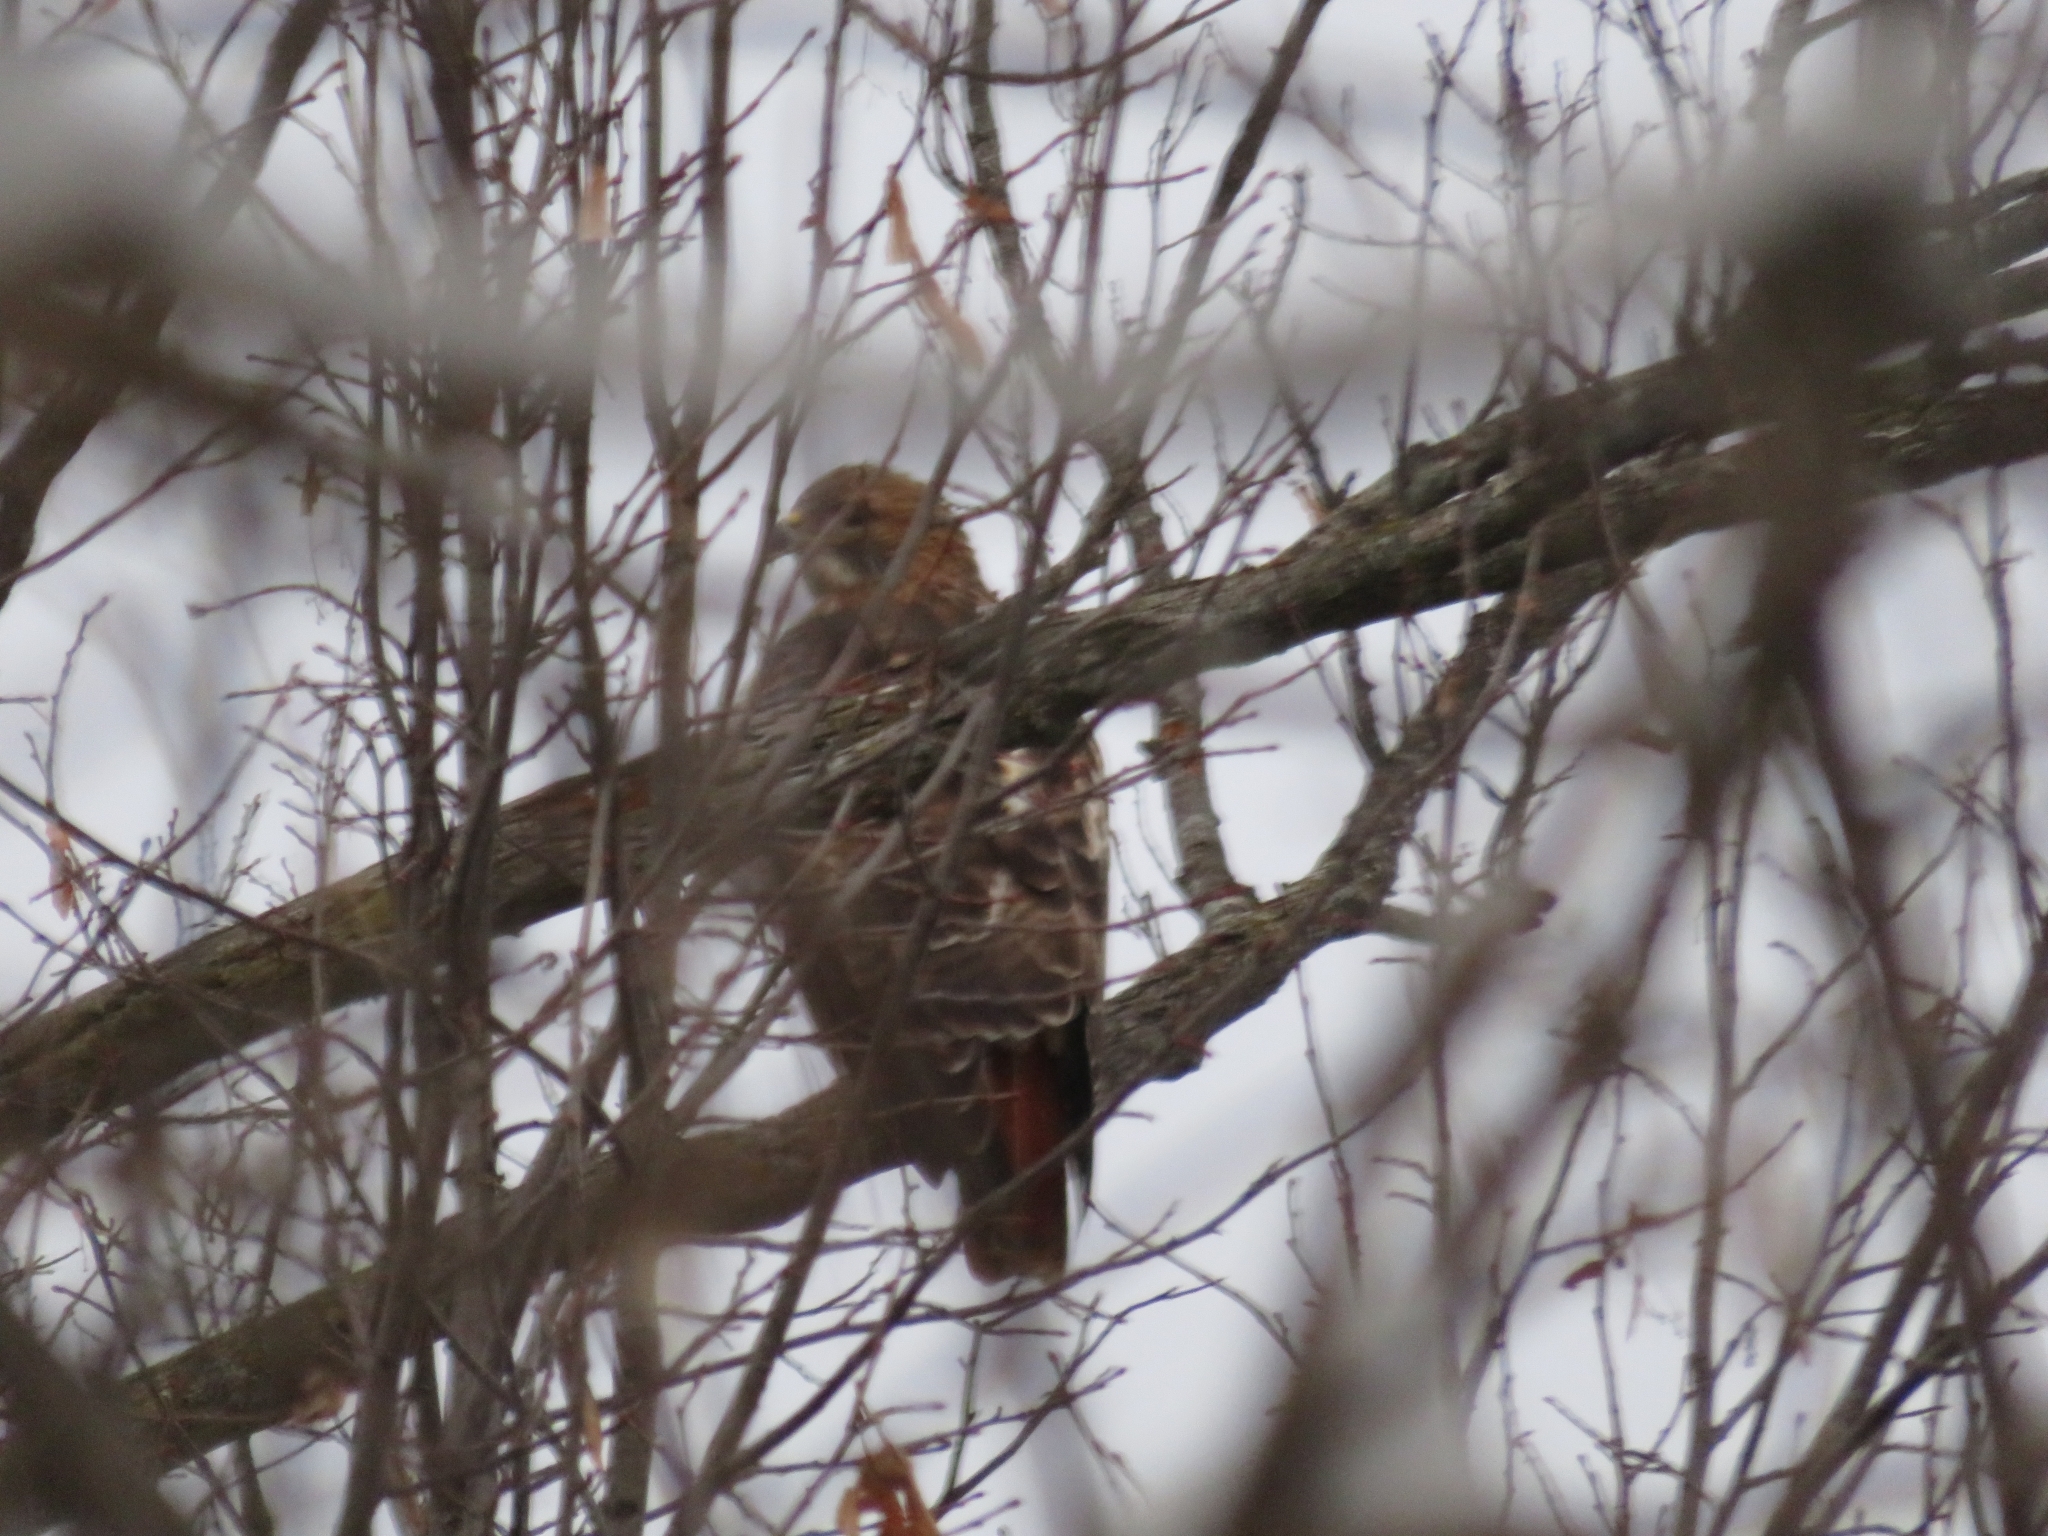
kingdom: Animalia
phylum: Chordata
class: Aves
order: Accipitriformes
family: Accipitridae
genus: Buteo
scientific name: Buteo jamaicensis
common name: Red-tailed hawk
